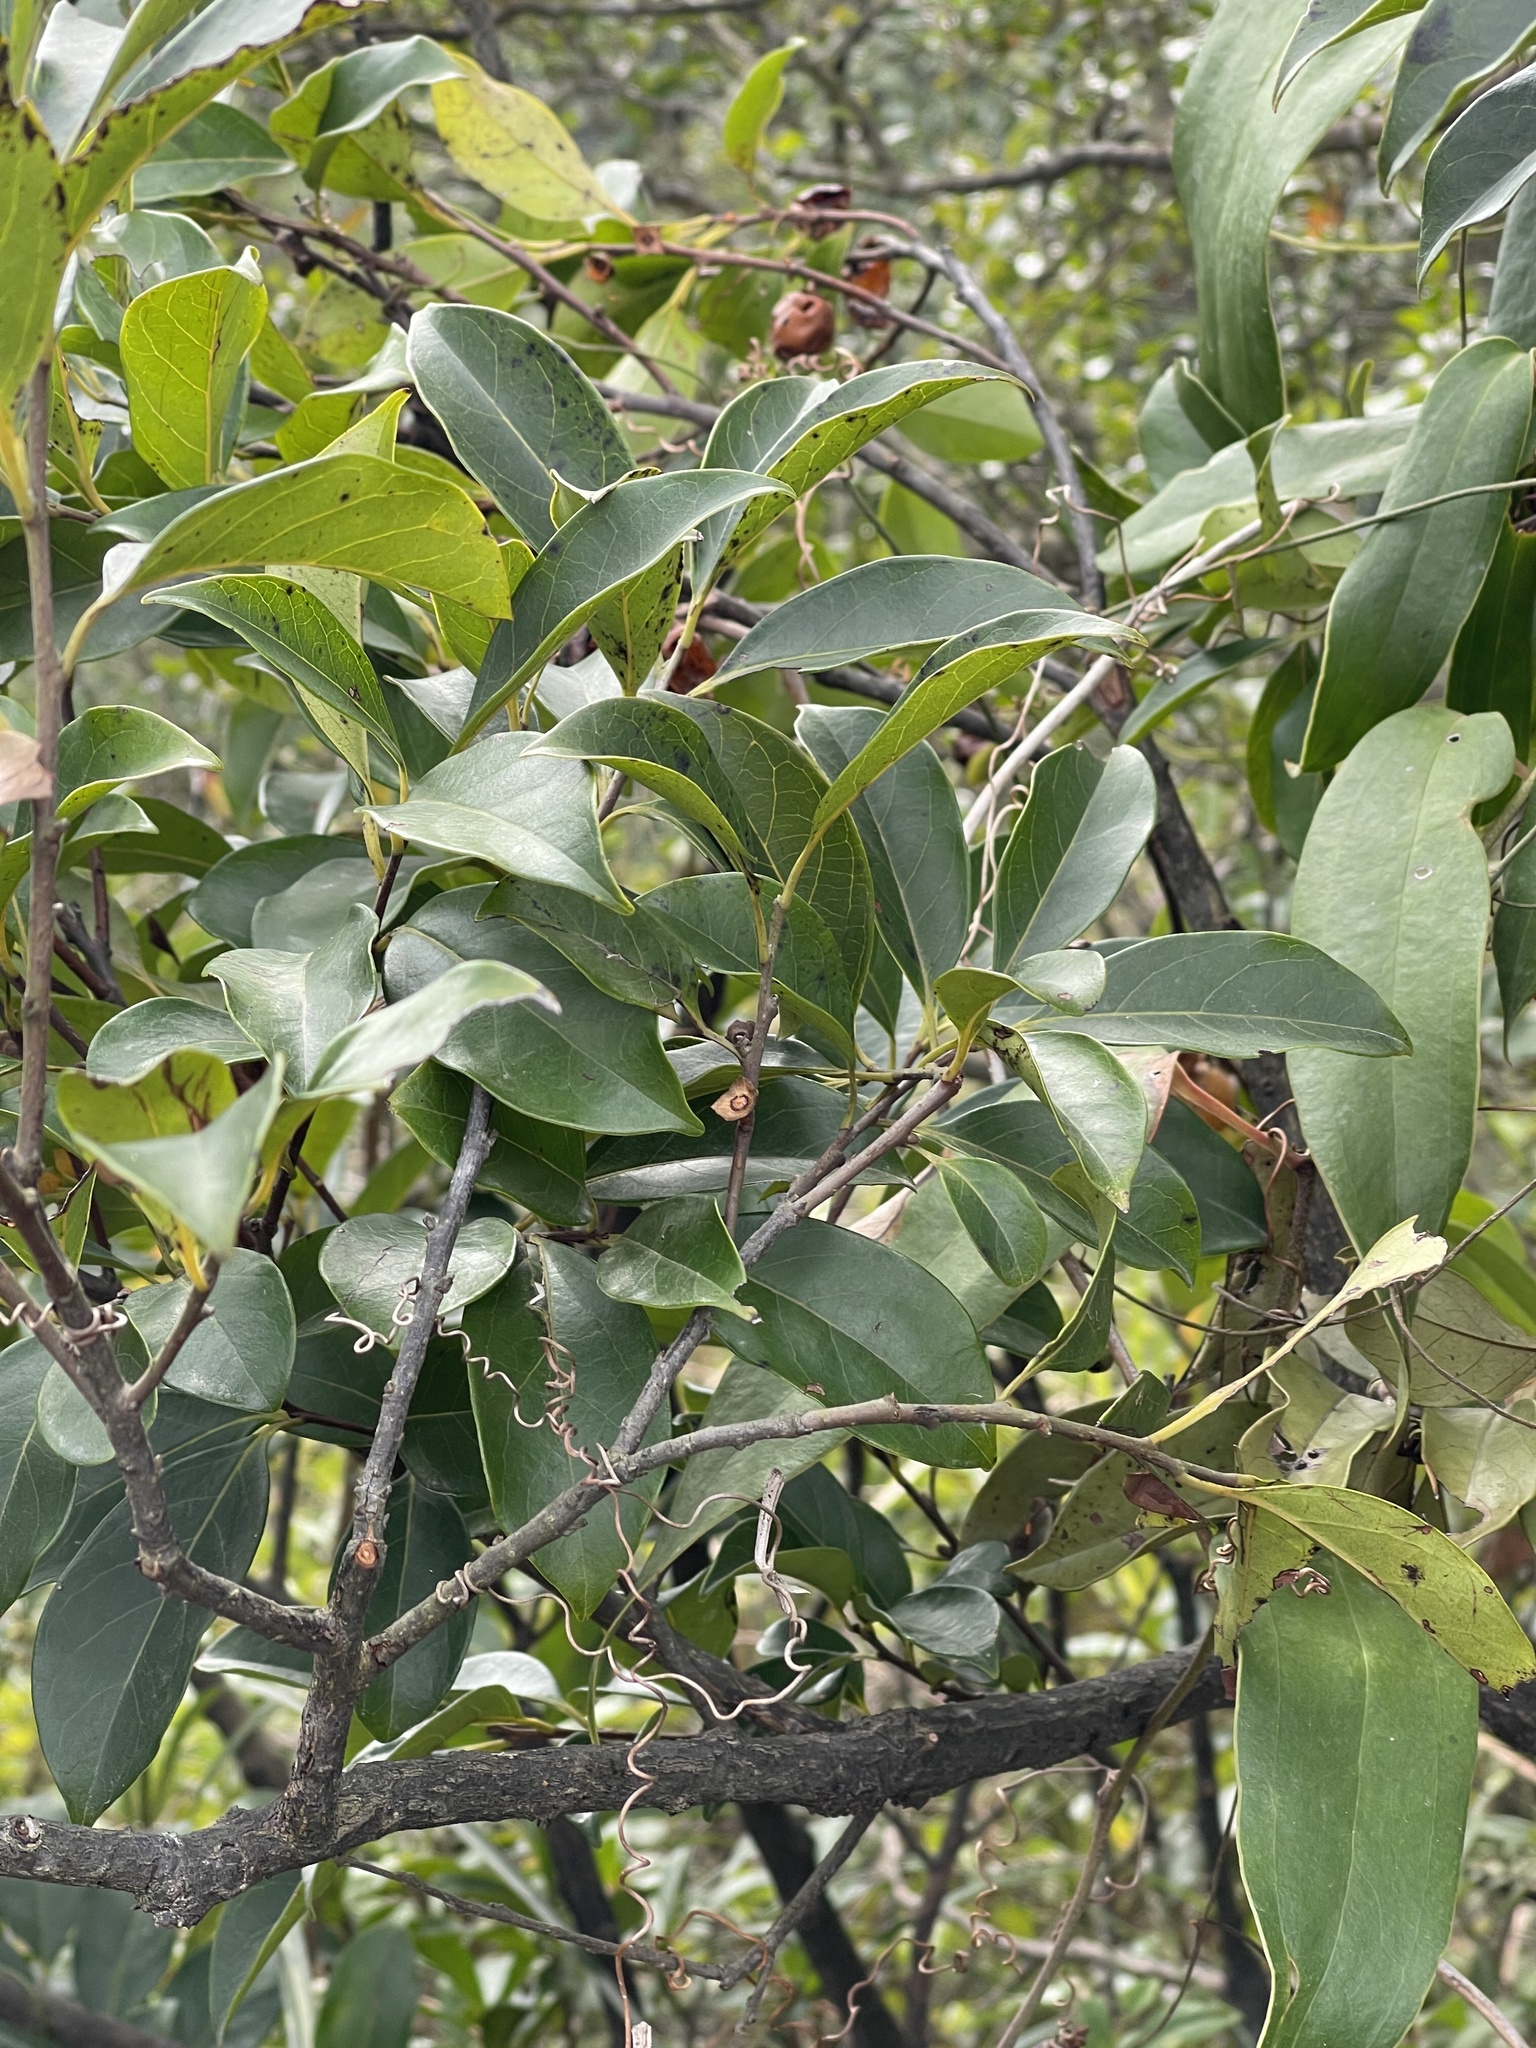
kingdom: Plantae
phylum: Tracheophyta
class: Magnoliopsida
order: Ericales
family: Ebenaceae
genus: Diospyros
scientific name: Diospyros morrisiana
